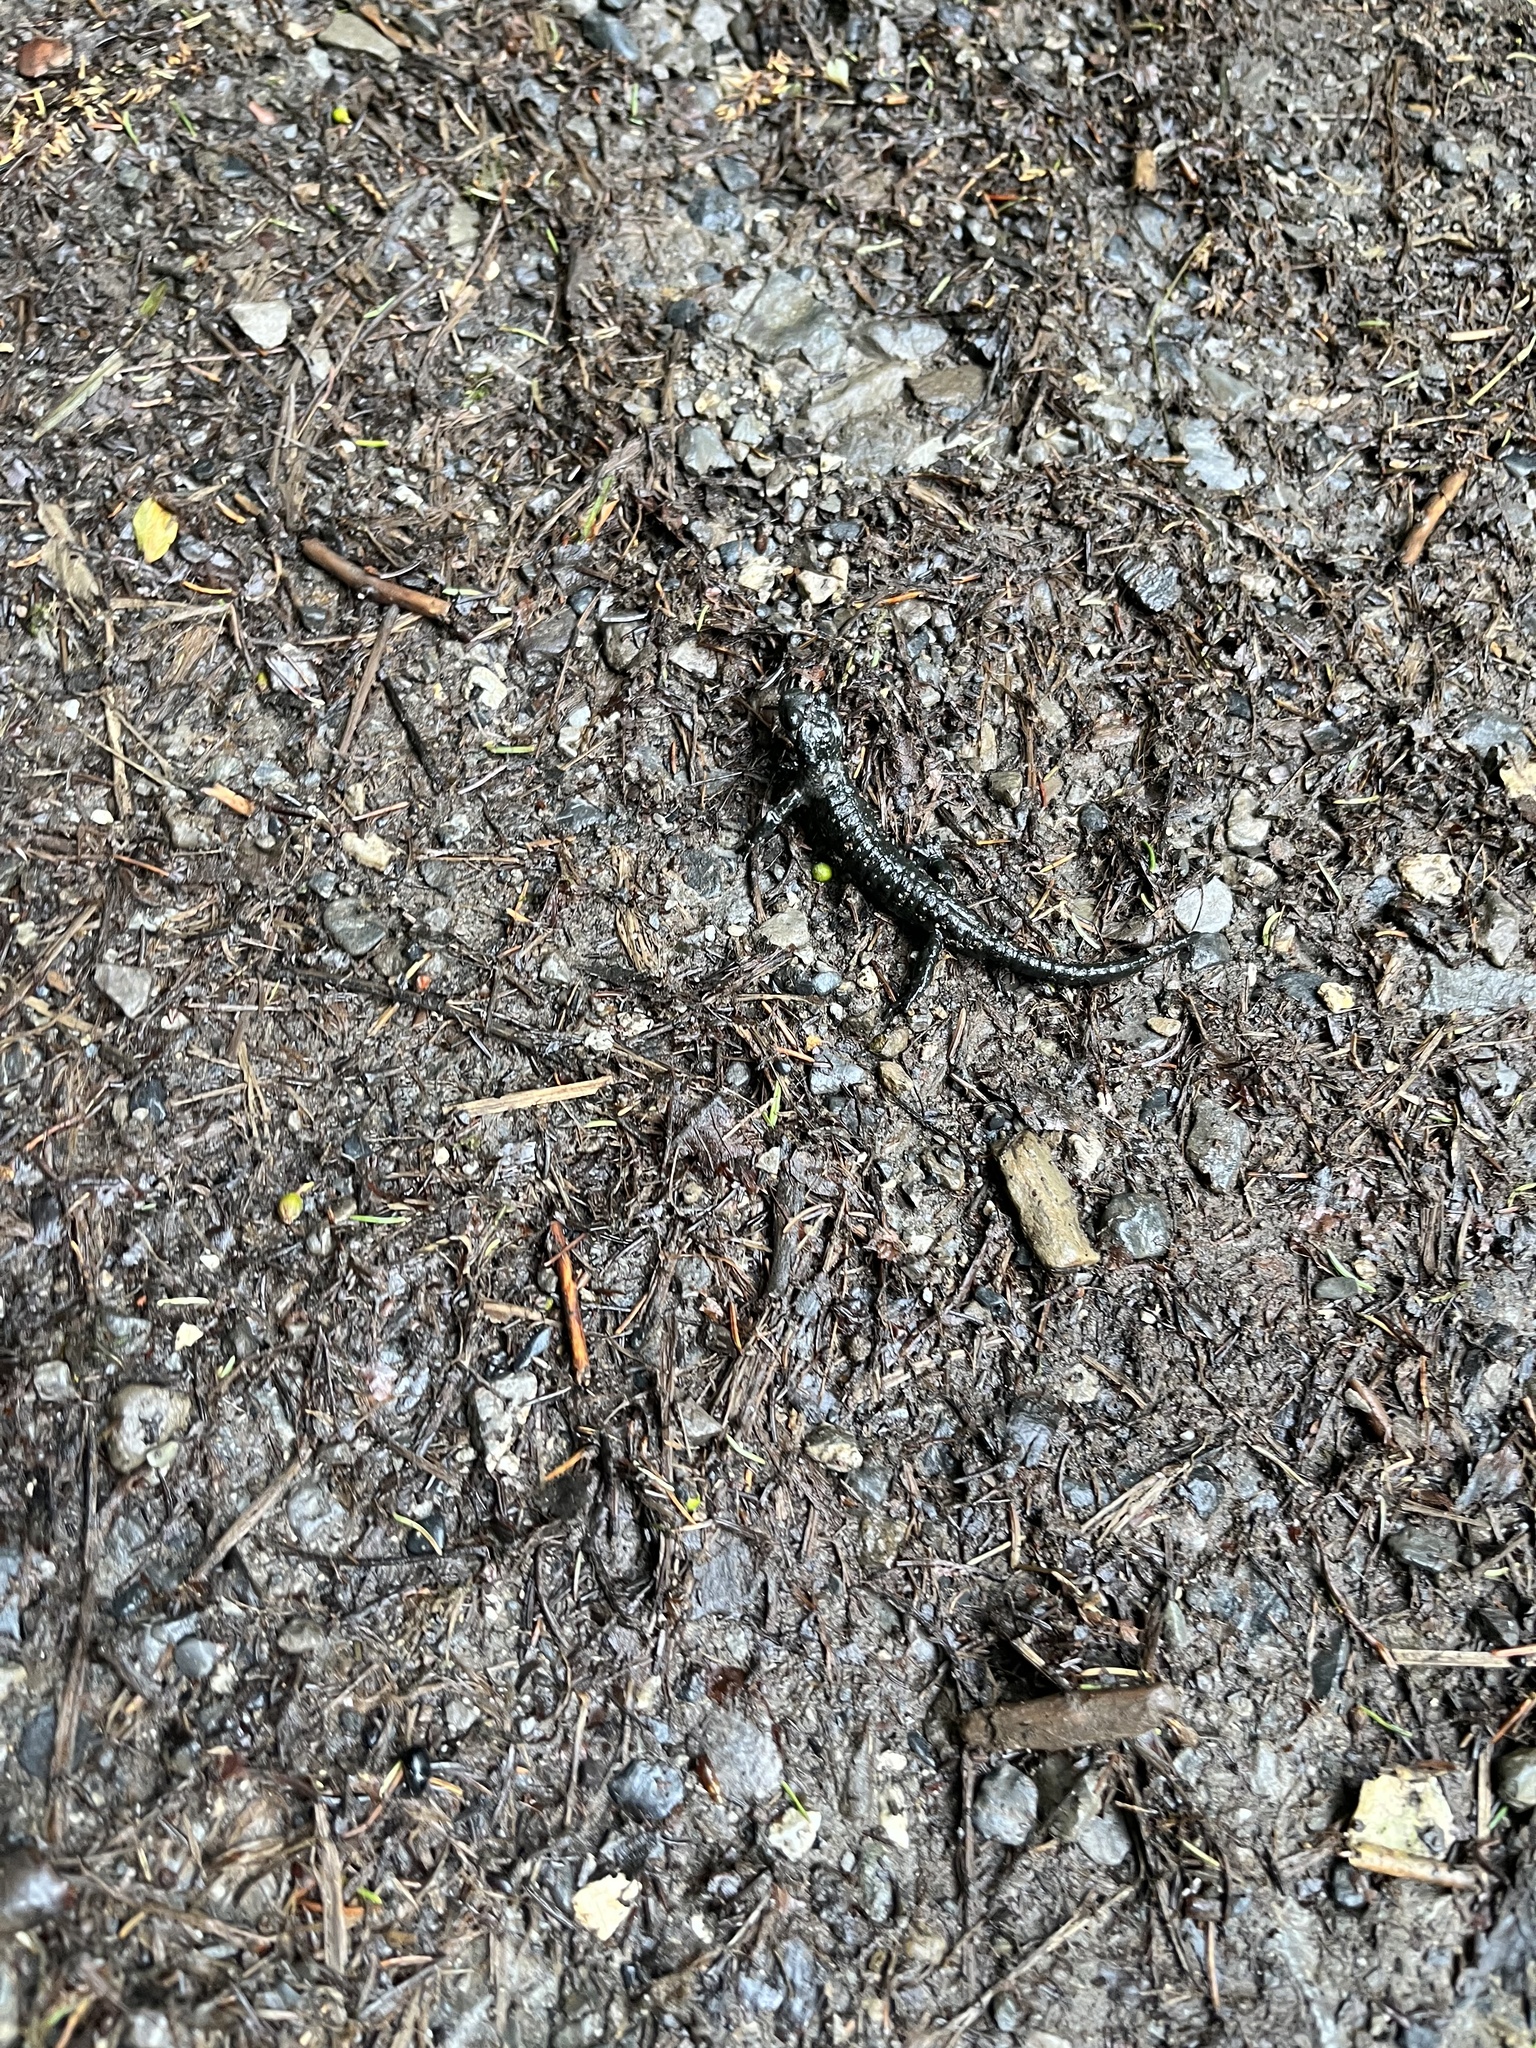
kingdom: Animalia
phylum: Chordata
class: Amphibia
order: Caudata
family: Salamandridae
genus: Salamandra
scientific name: Salamandra atra
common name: Alpine salamander
